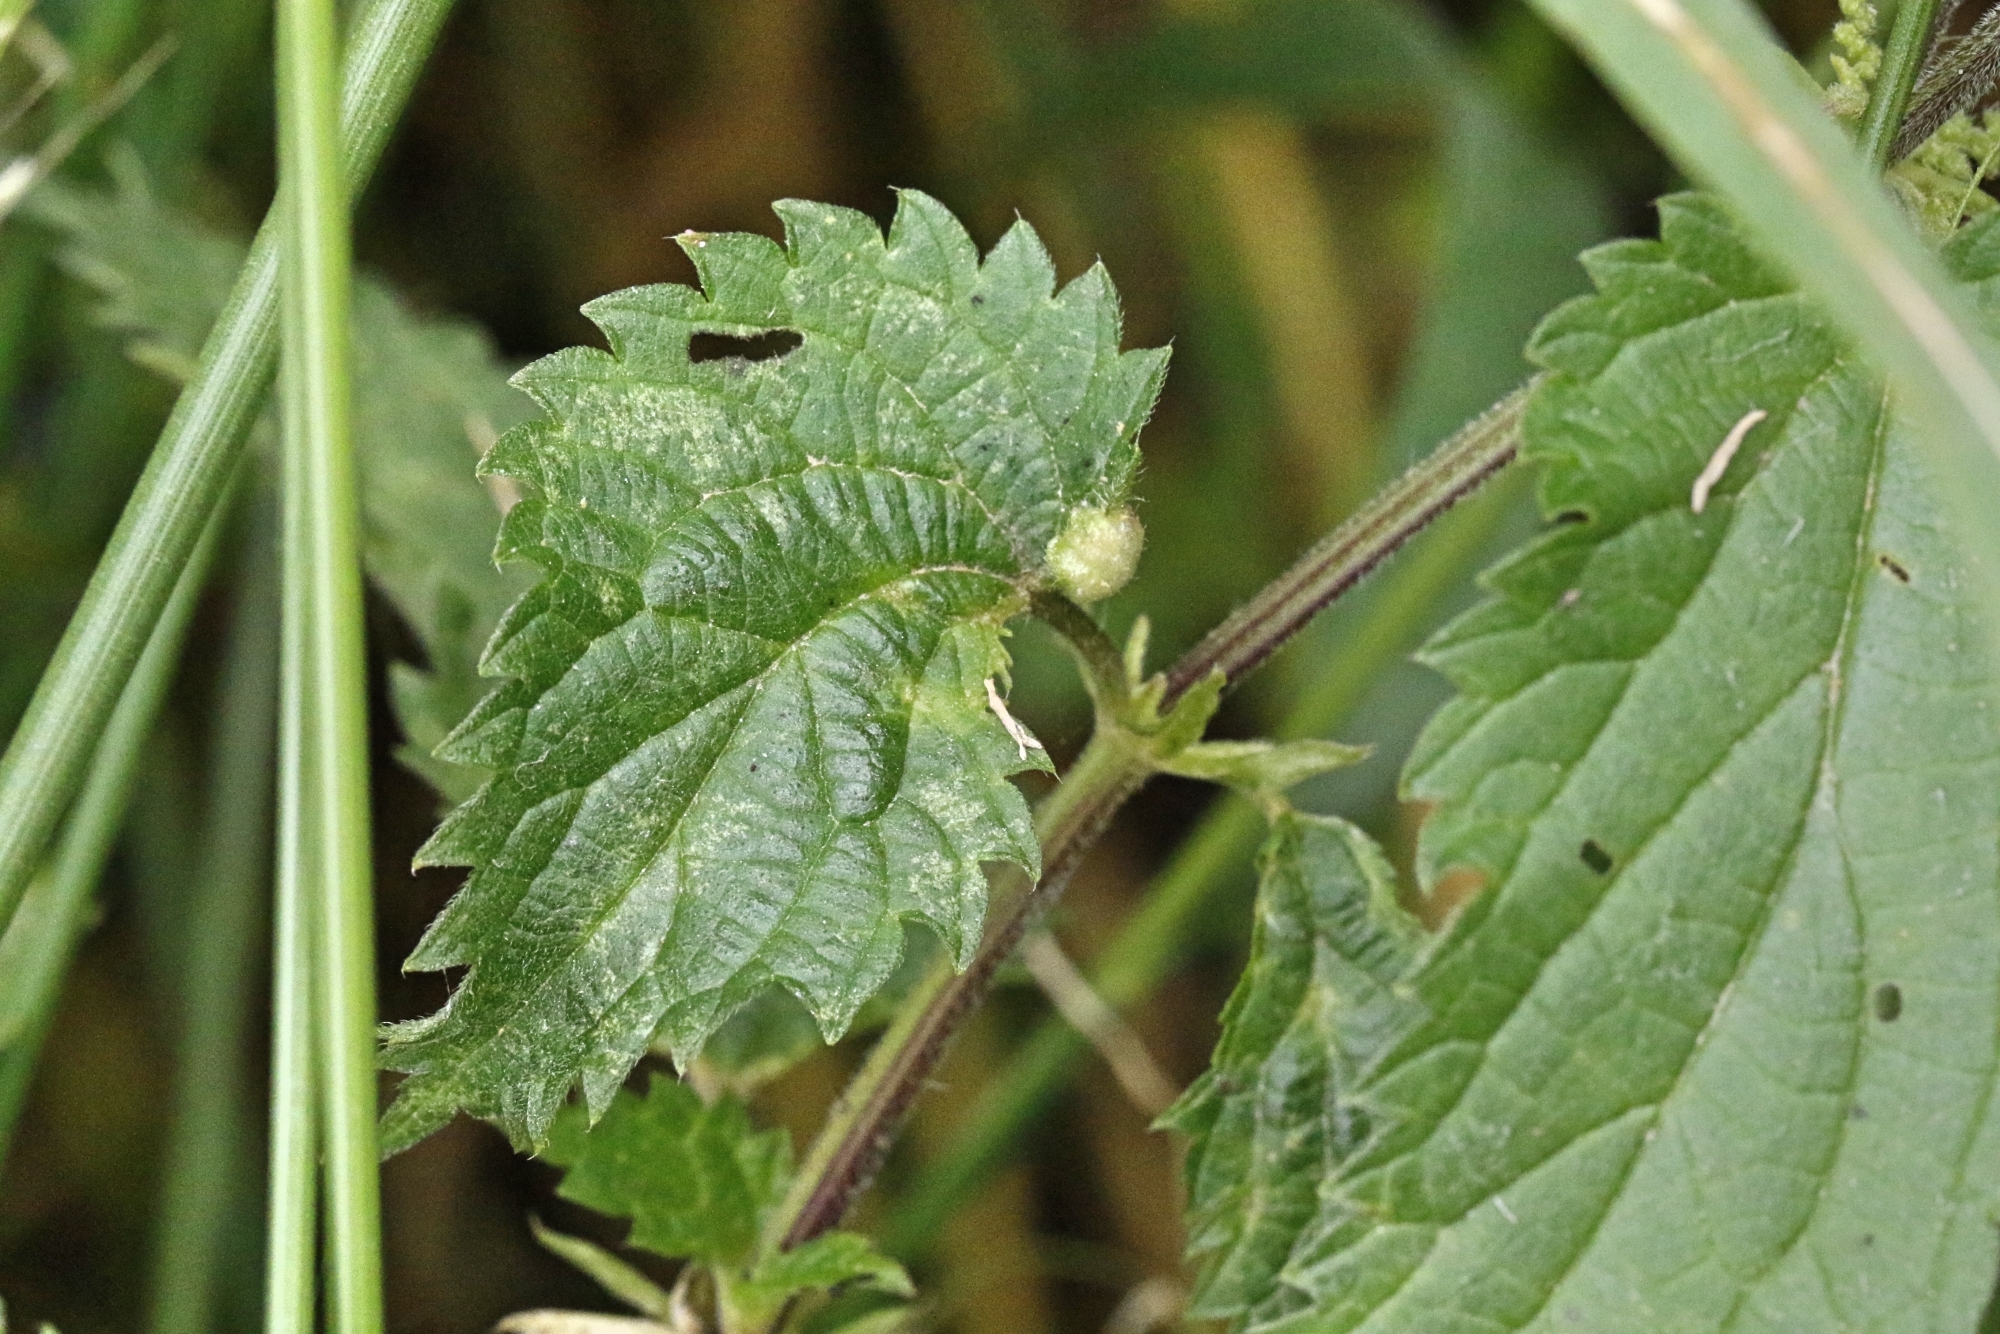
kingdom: Animalia
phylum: Arthropoda
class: Insecta
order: Diptera
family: Cecidomyiidae
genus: Dasineura
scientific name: Dasineura urticae
